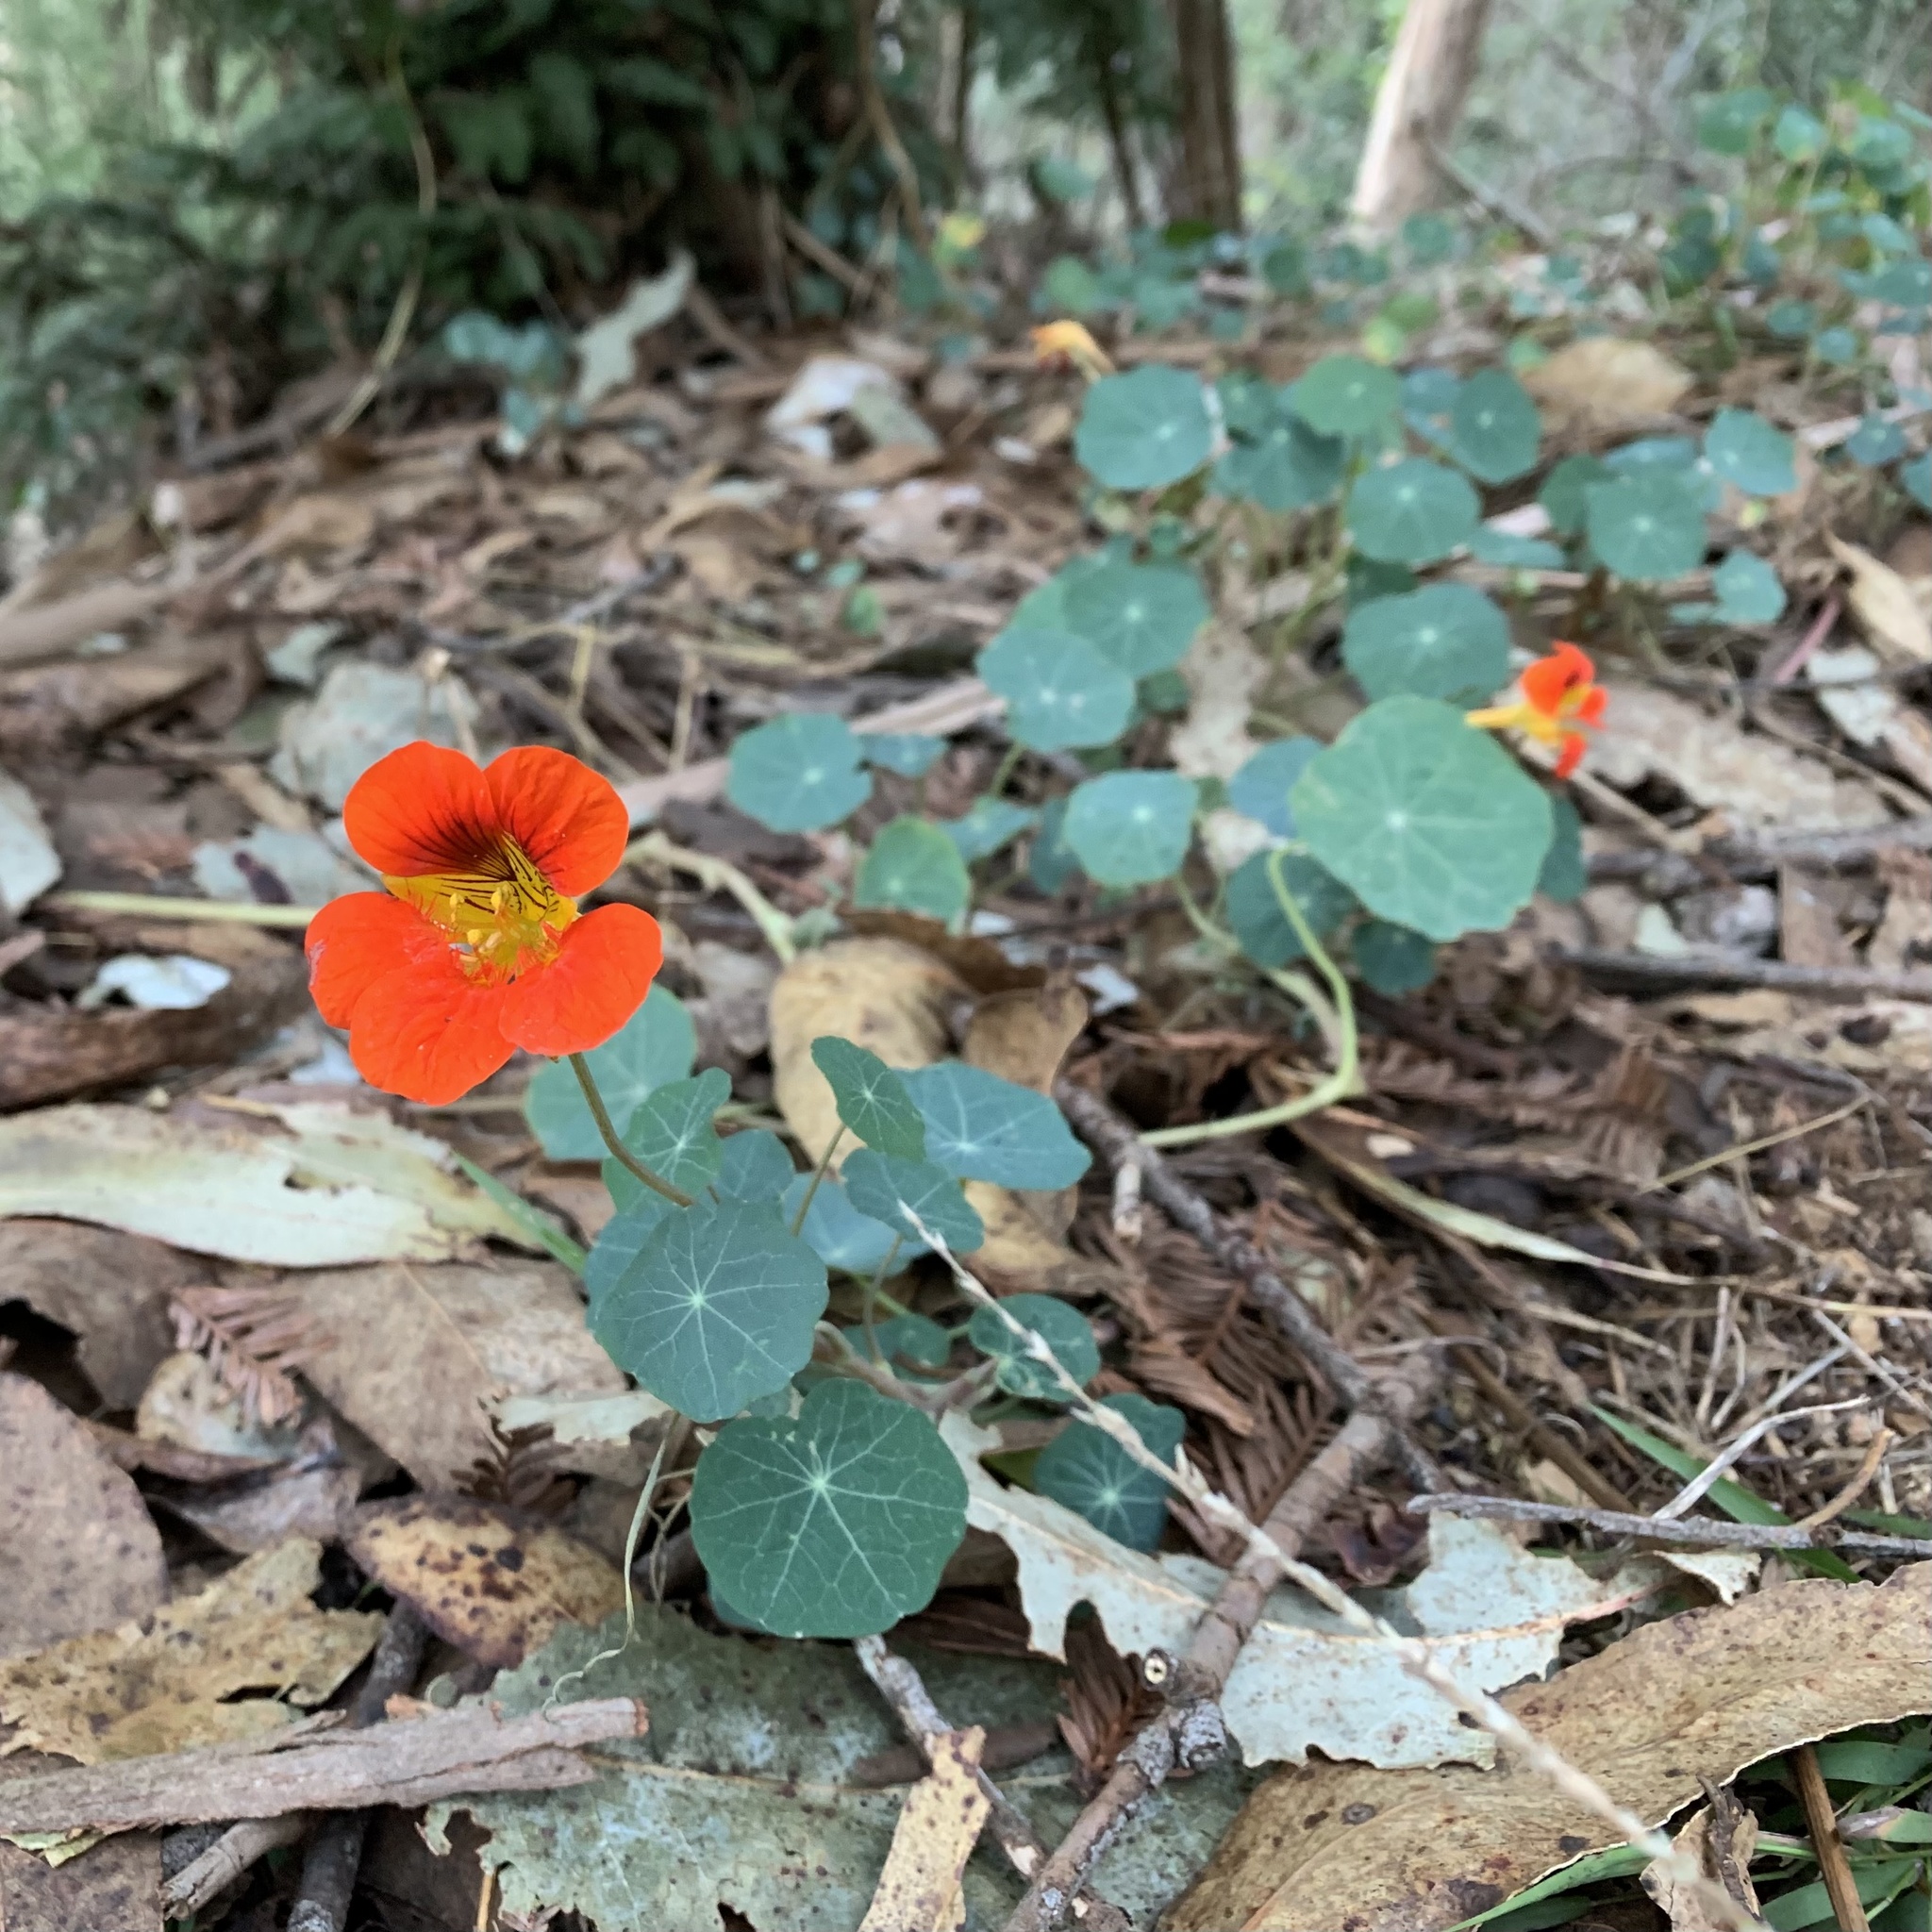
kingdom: Plantae
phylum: Tracheophyta
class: Magnoliopsida
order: Brassicales
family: Tropaeolaceae
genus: Tropaeolum
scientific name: Tropaeolum majus
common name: Nasturtium
